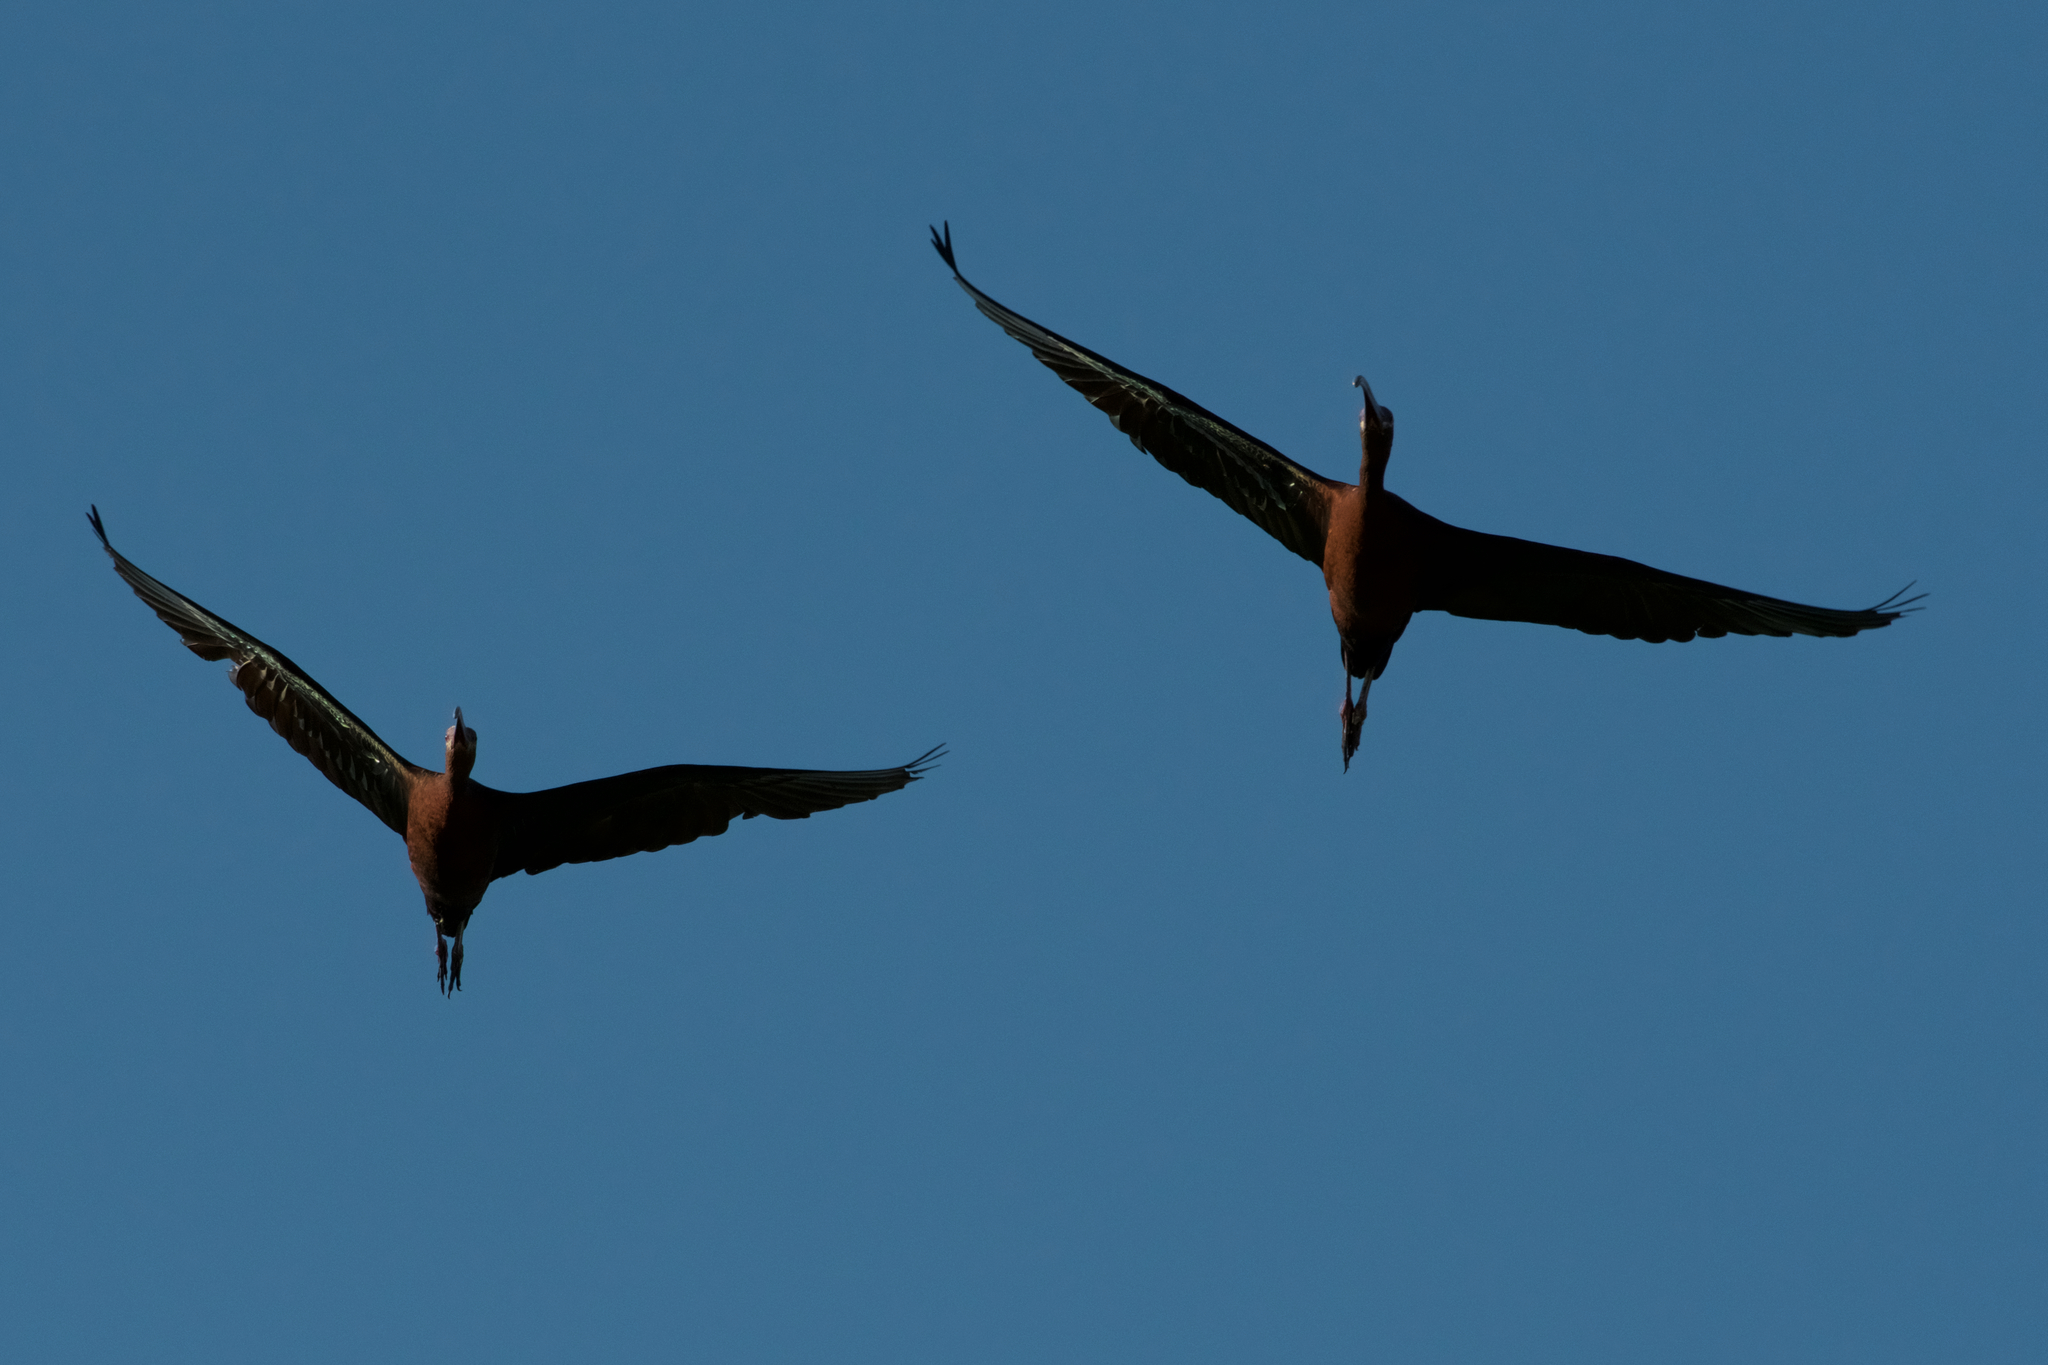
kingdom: Animalia
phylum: Chordata
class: Aves
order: Pelecaniformes
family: Threskiornithidae
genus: Plegadis
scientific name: Plegadis chihi
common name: White-faced ibis
